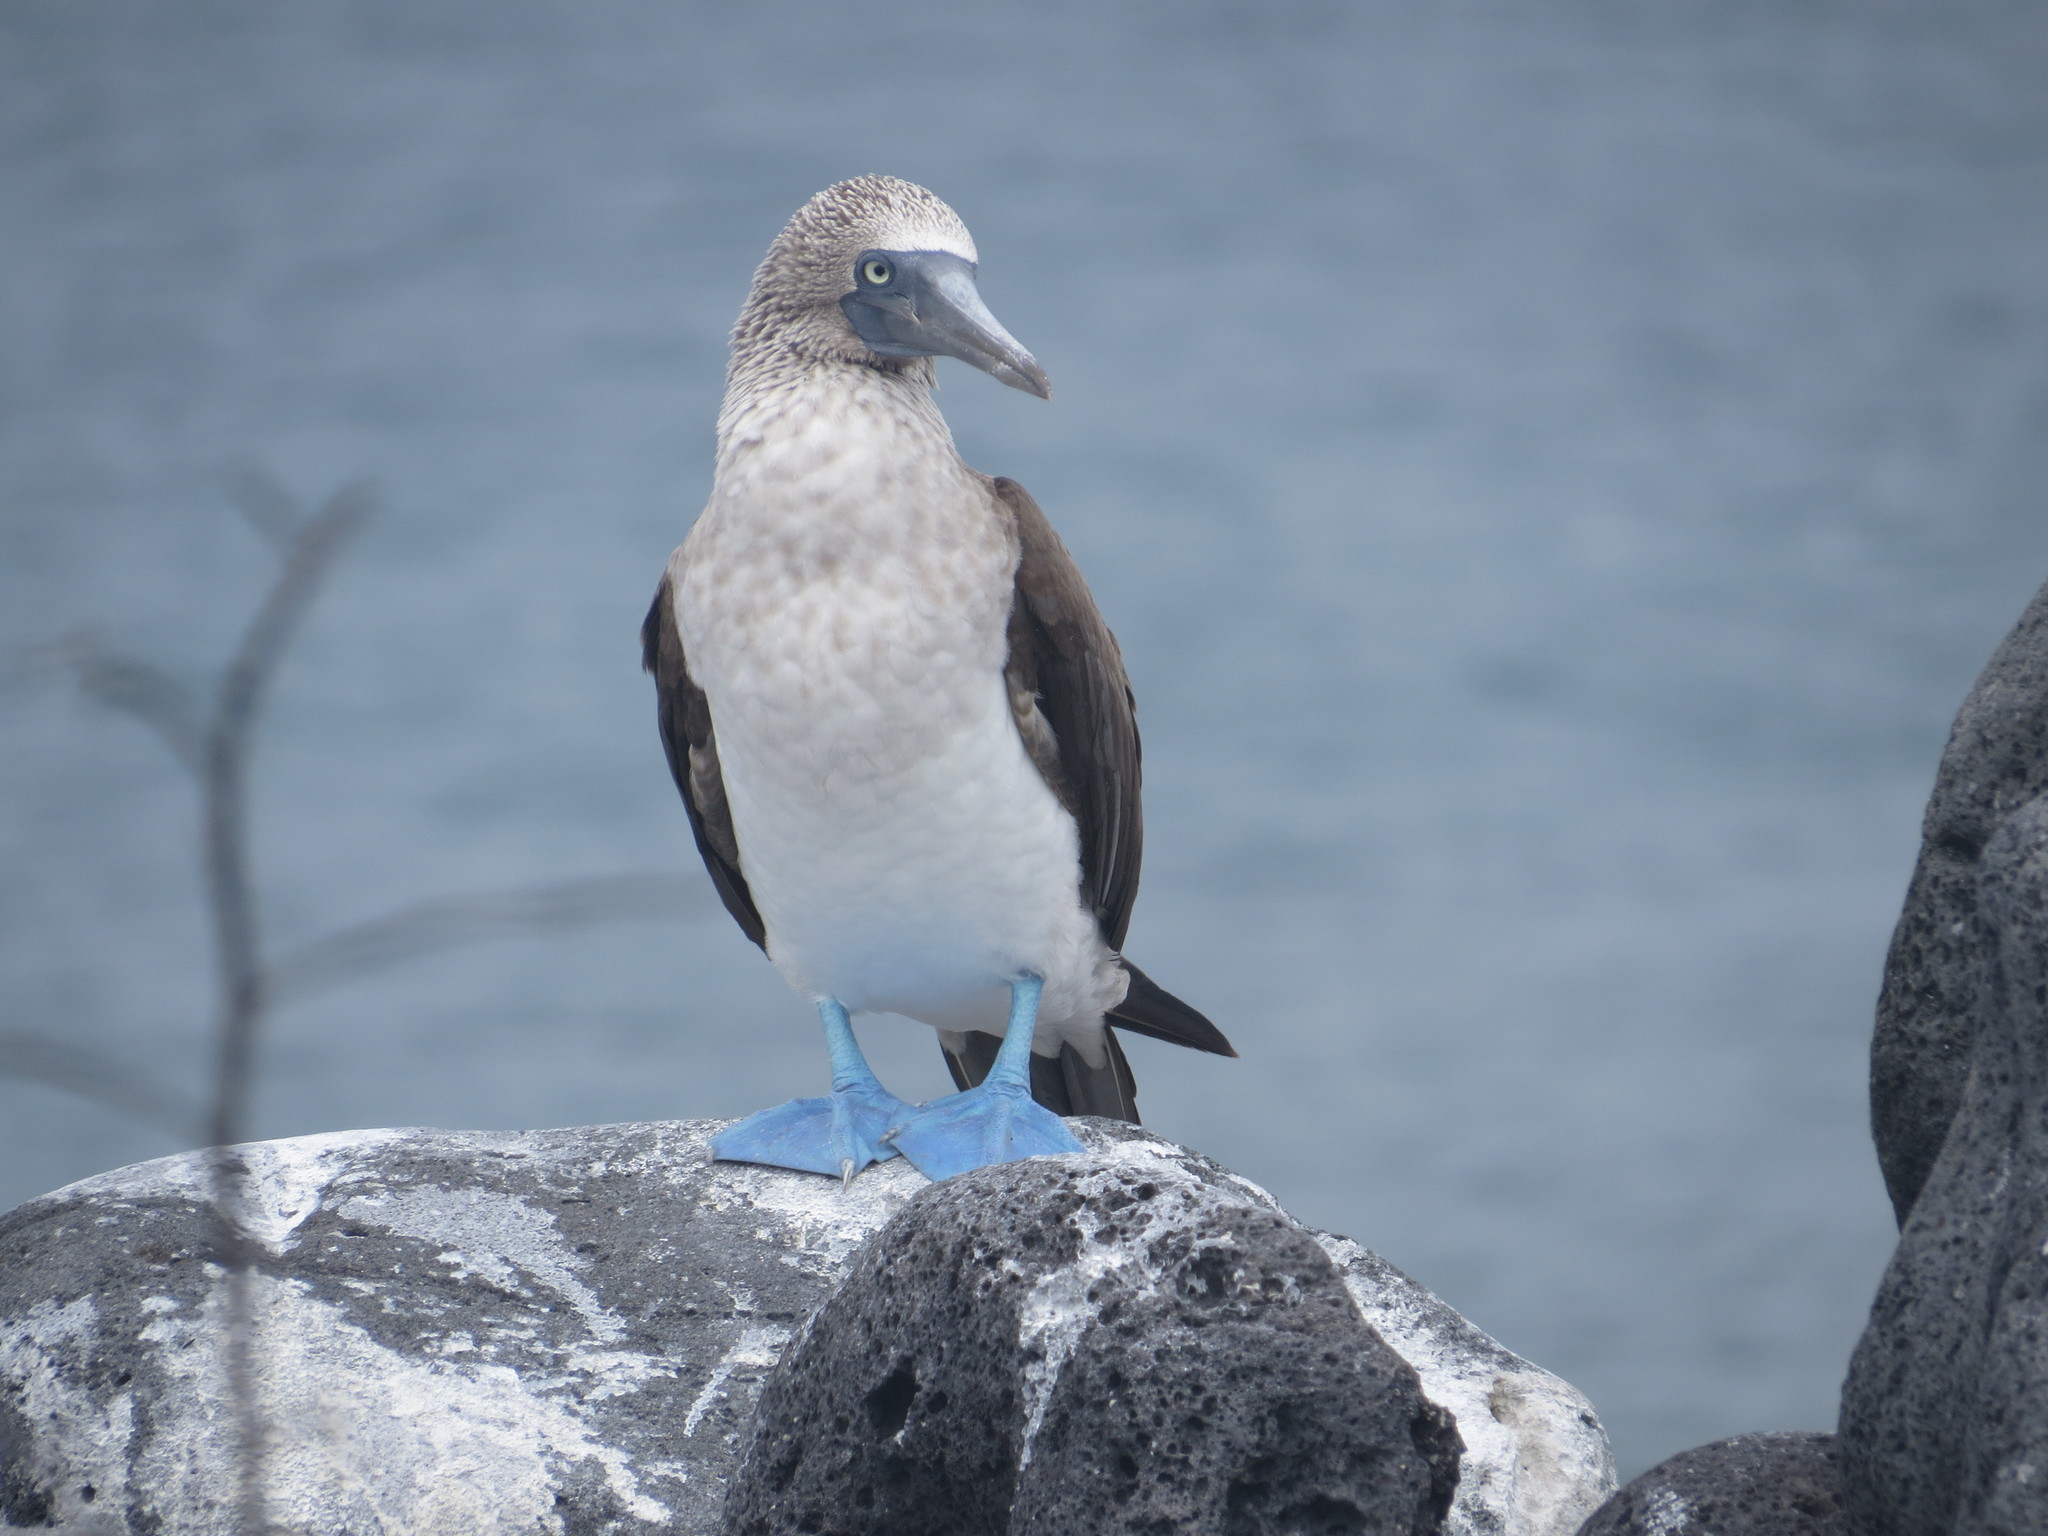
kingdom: Animalia
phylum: Chordata
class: Aves
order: Suliformes
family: Sulidae
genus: Sula
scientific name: Sula nebouxii
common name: Blue-footed booby
